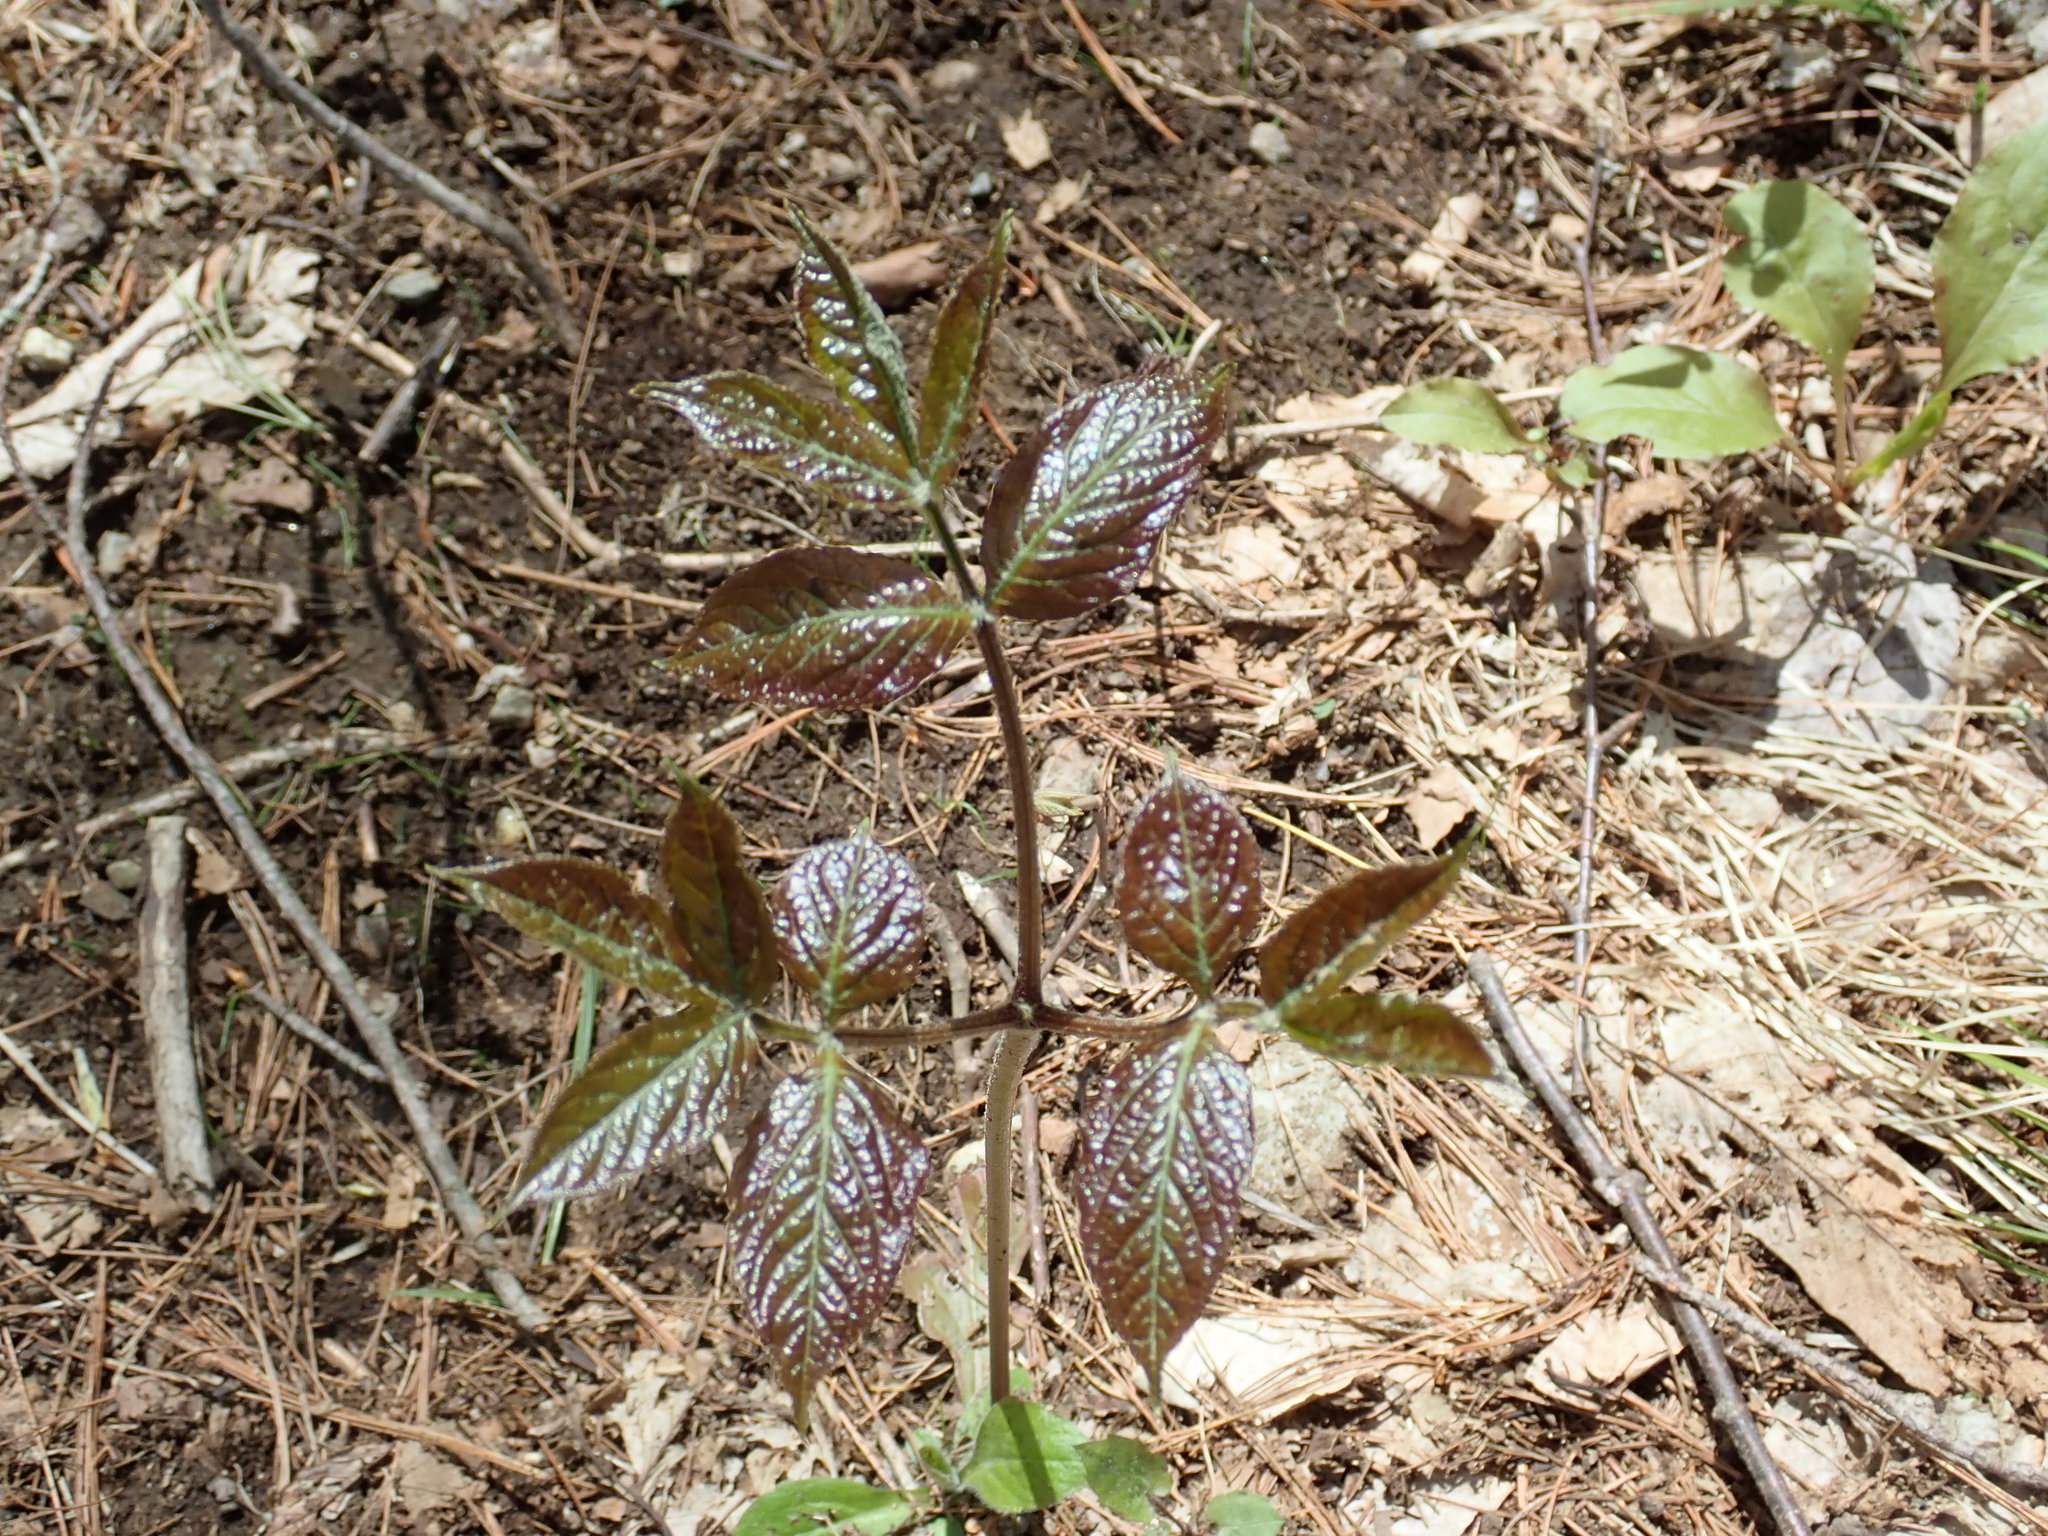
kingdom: Plantae
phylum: Tracheophyta
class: Magnoliopsida
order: Apiales
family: Araliaceae
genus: Aralia
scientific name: Aralia nudicaulis
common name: Wild sarsaparilla
